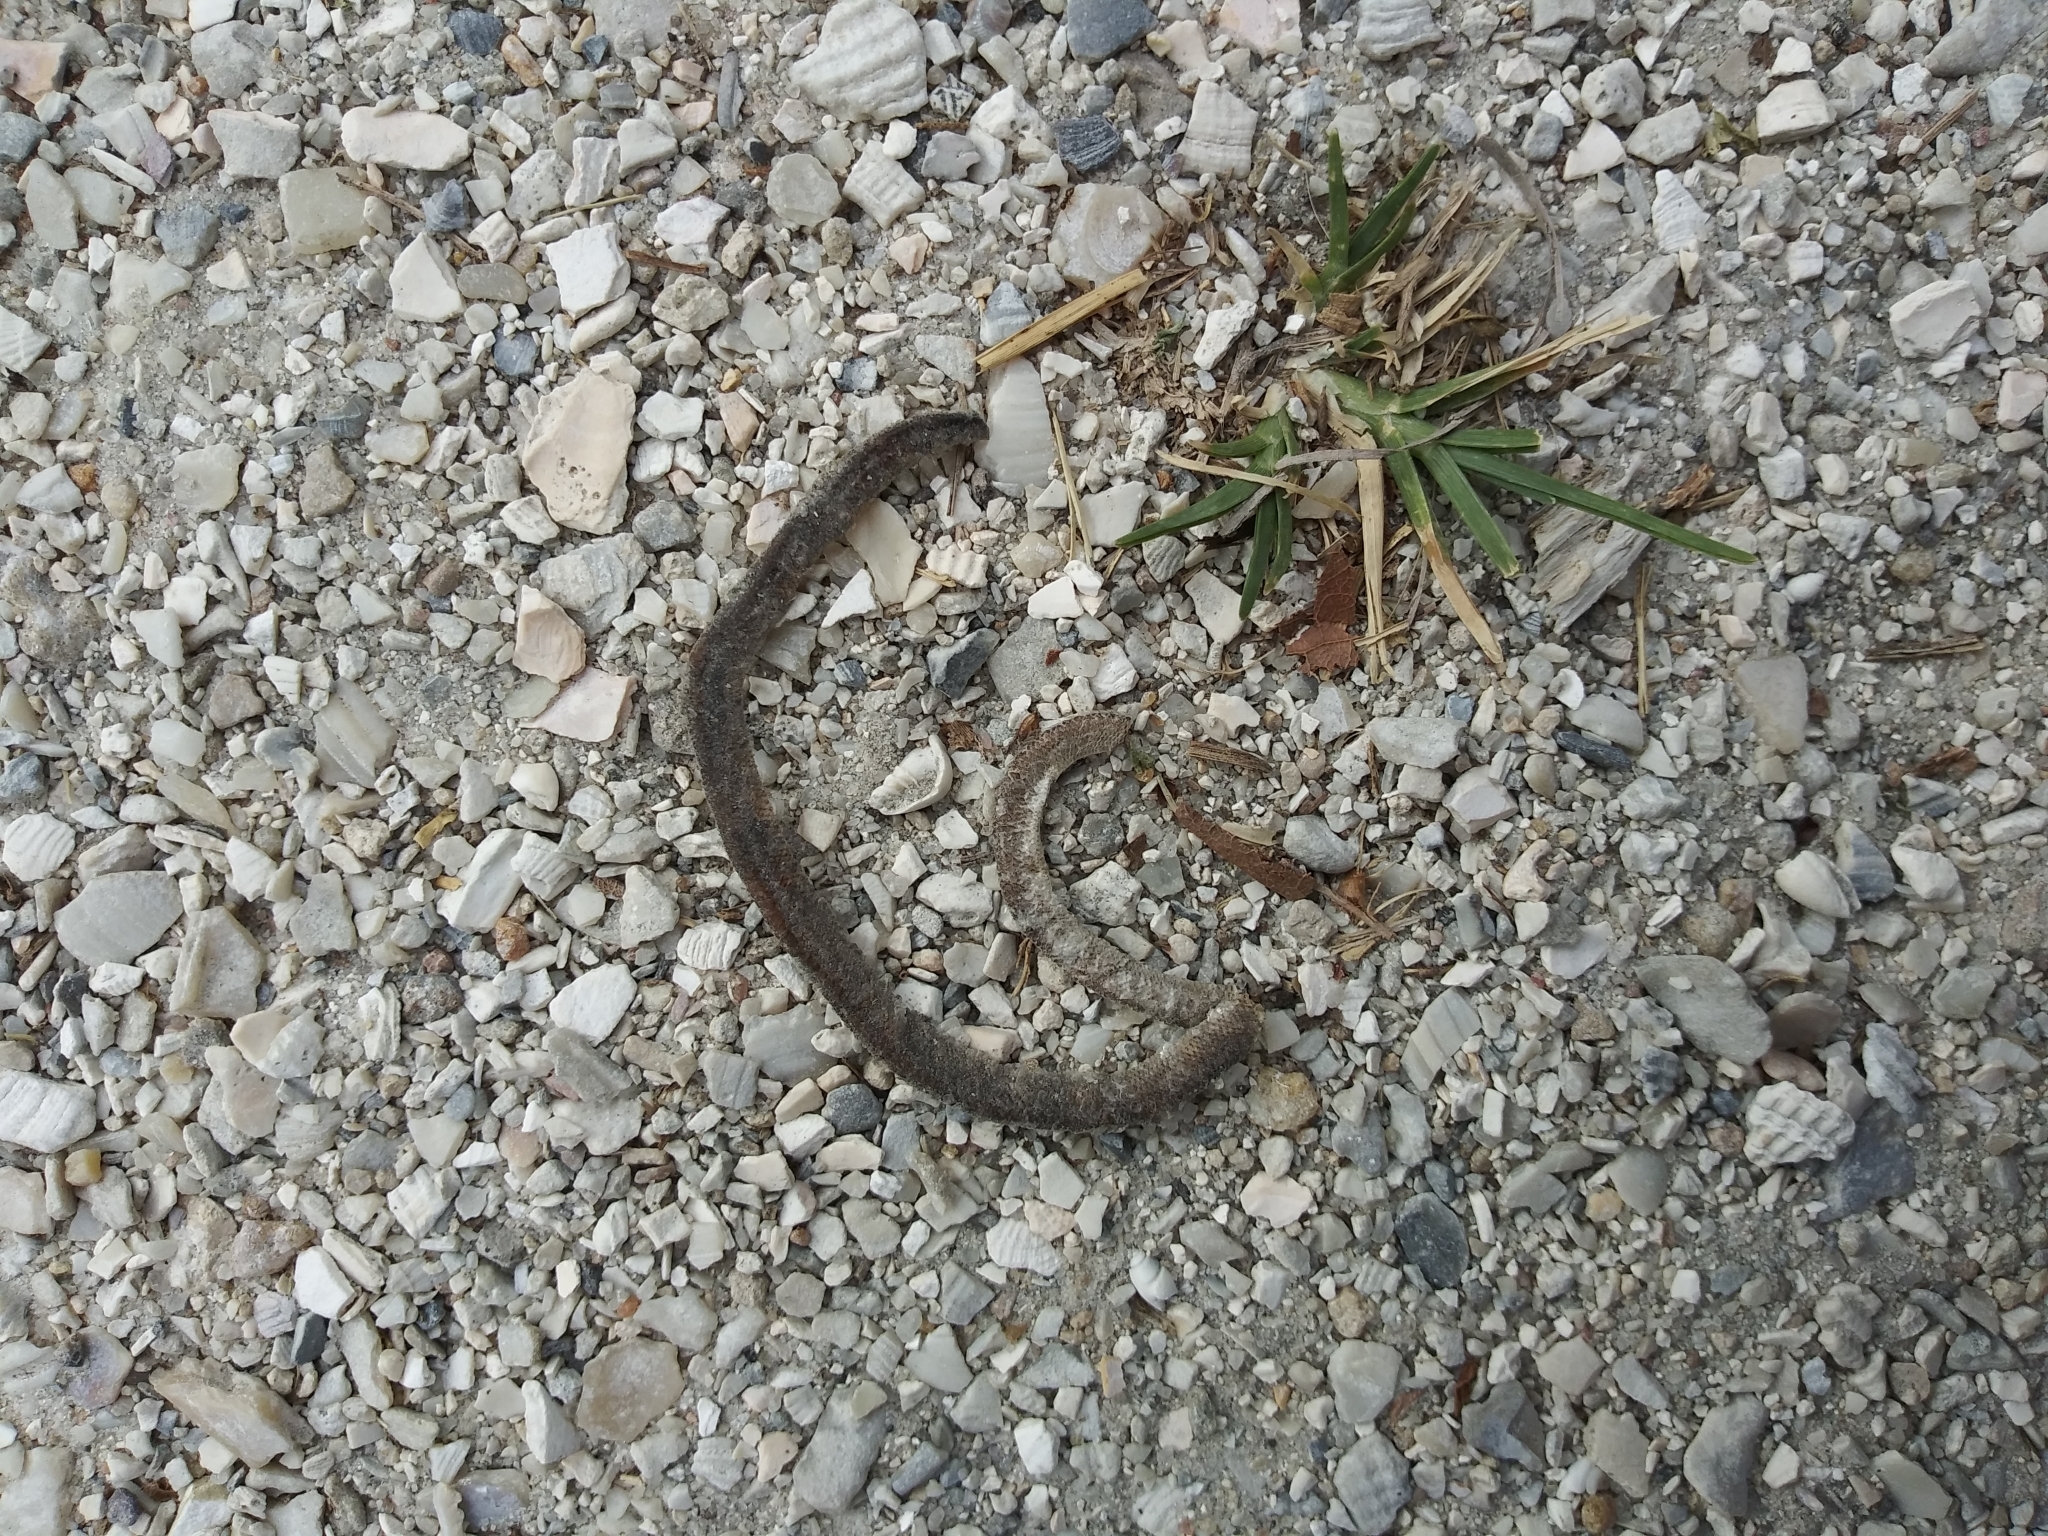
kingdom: Animalia
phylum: Chordata
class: Squamata
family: Typhlopidae
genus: Indotyphlops
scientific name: Indotyphlops braminus
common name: Brahminy blindsnake
